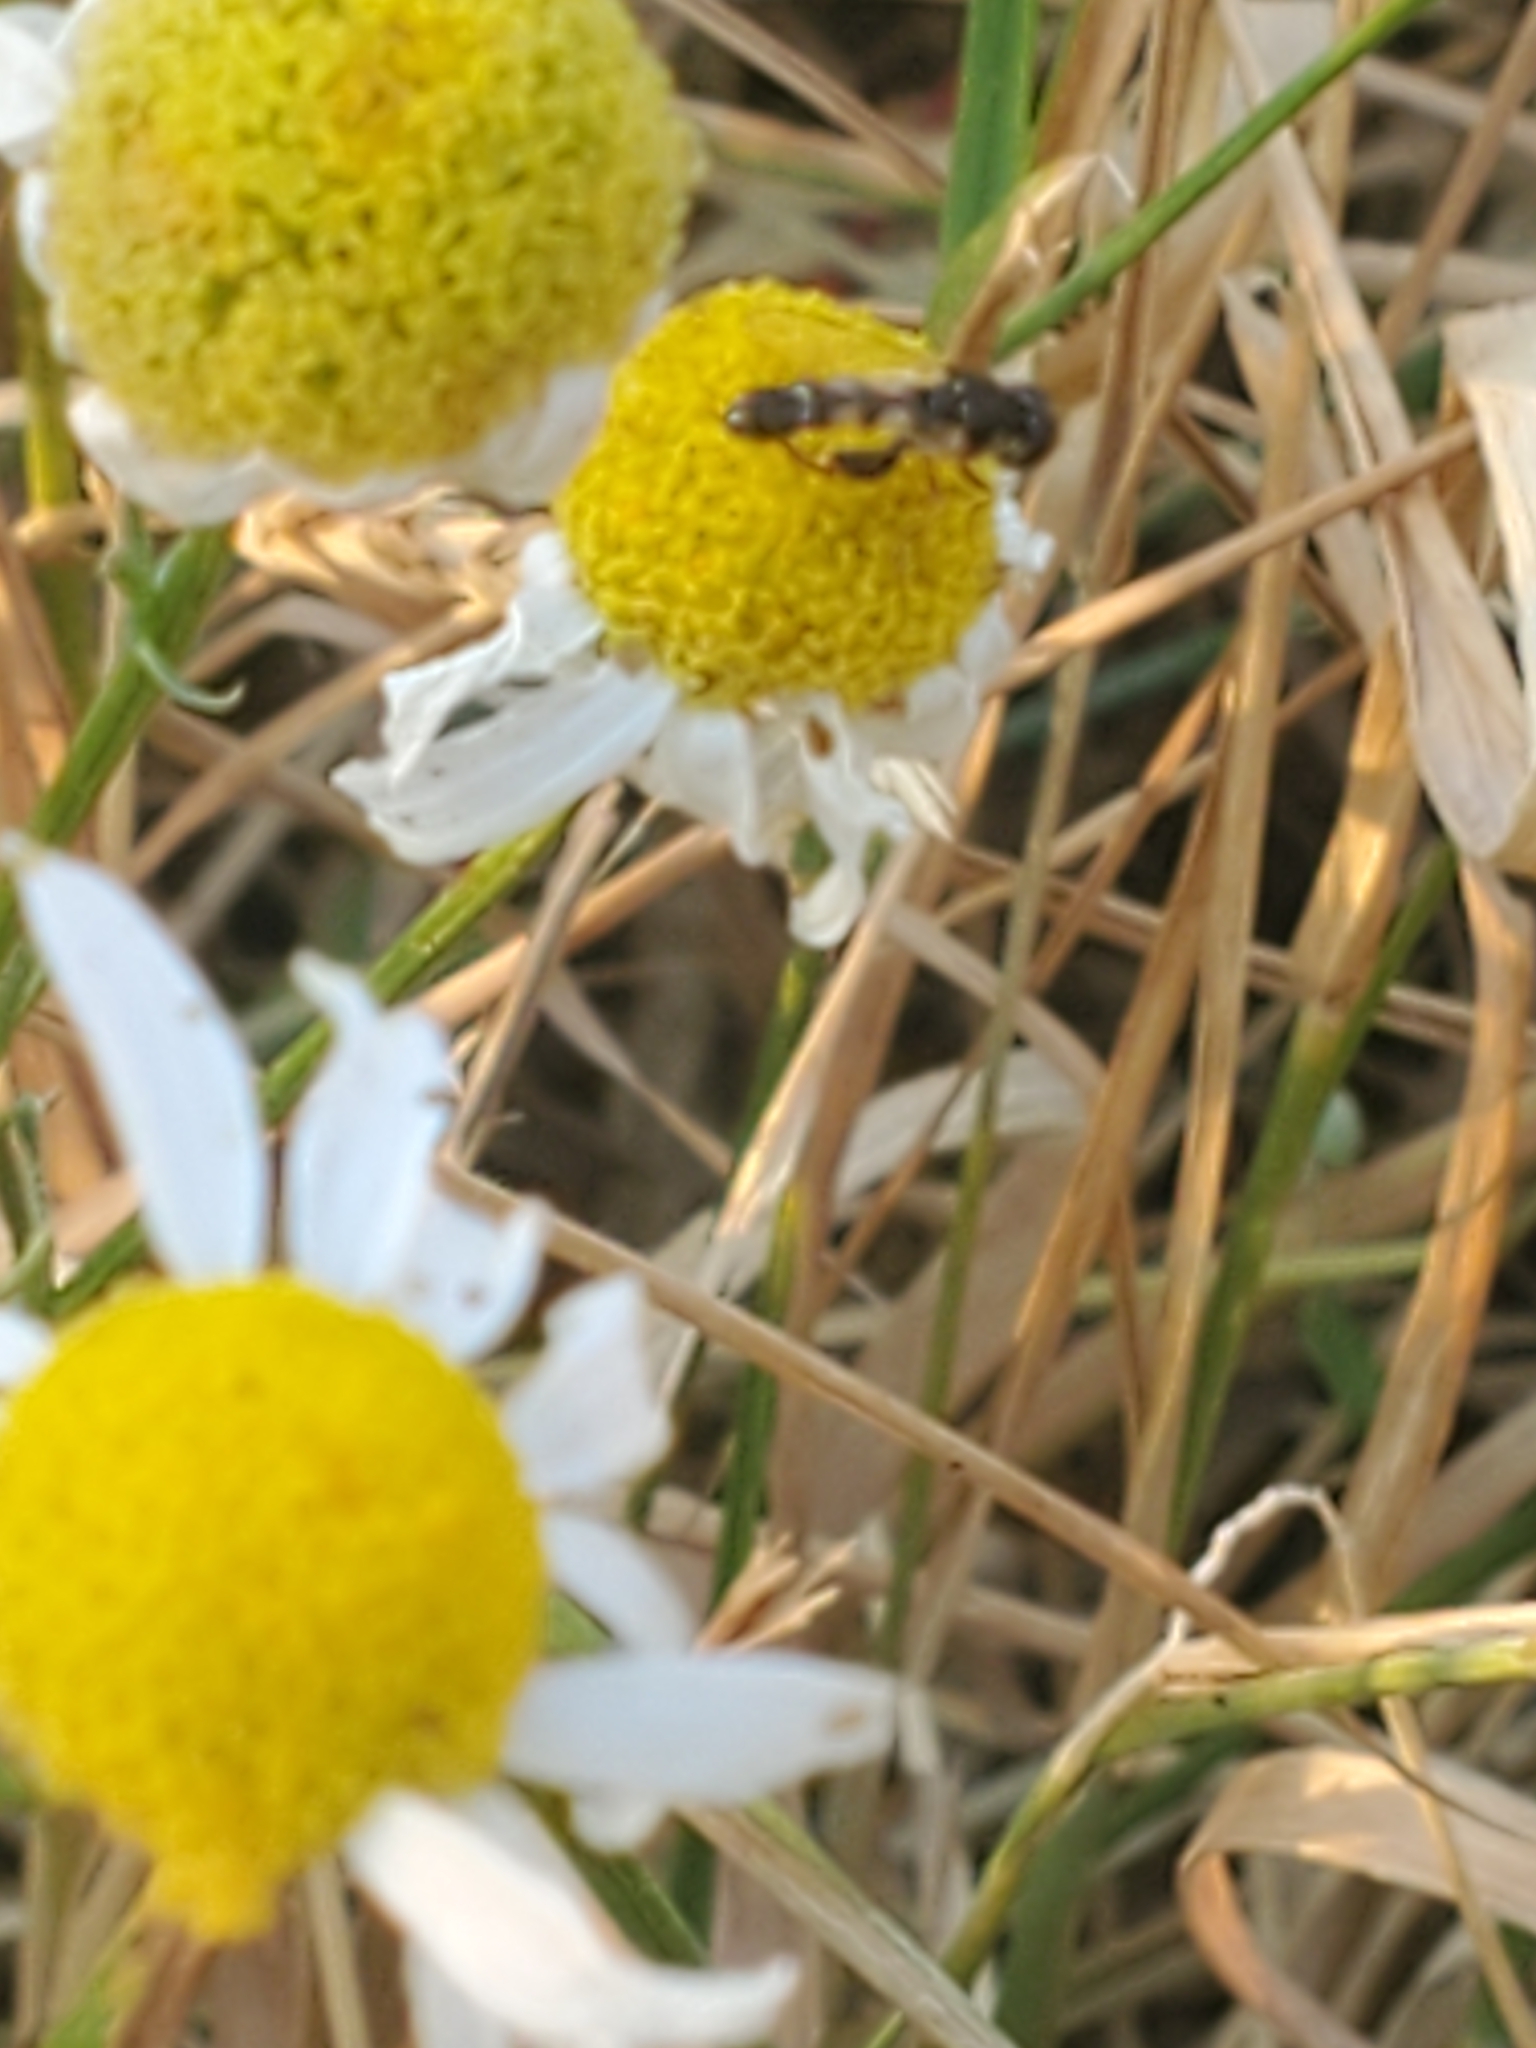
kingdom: Animalia
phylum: Arthropoda
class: Insecta
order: Diptera
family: Syrphidae
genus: Syritta
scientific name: Syritta pipiens
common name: Hover fly
